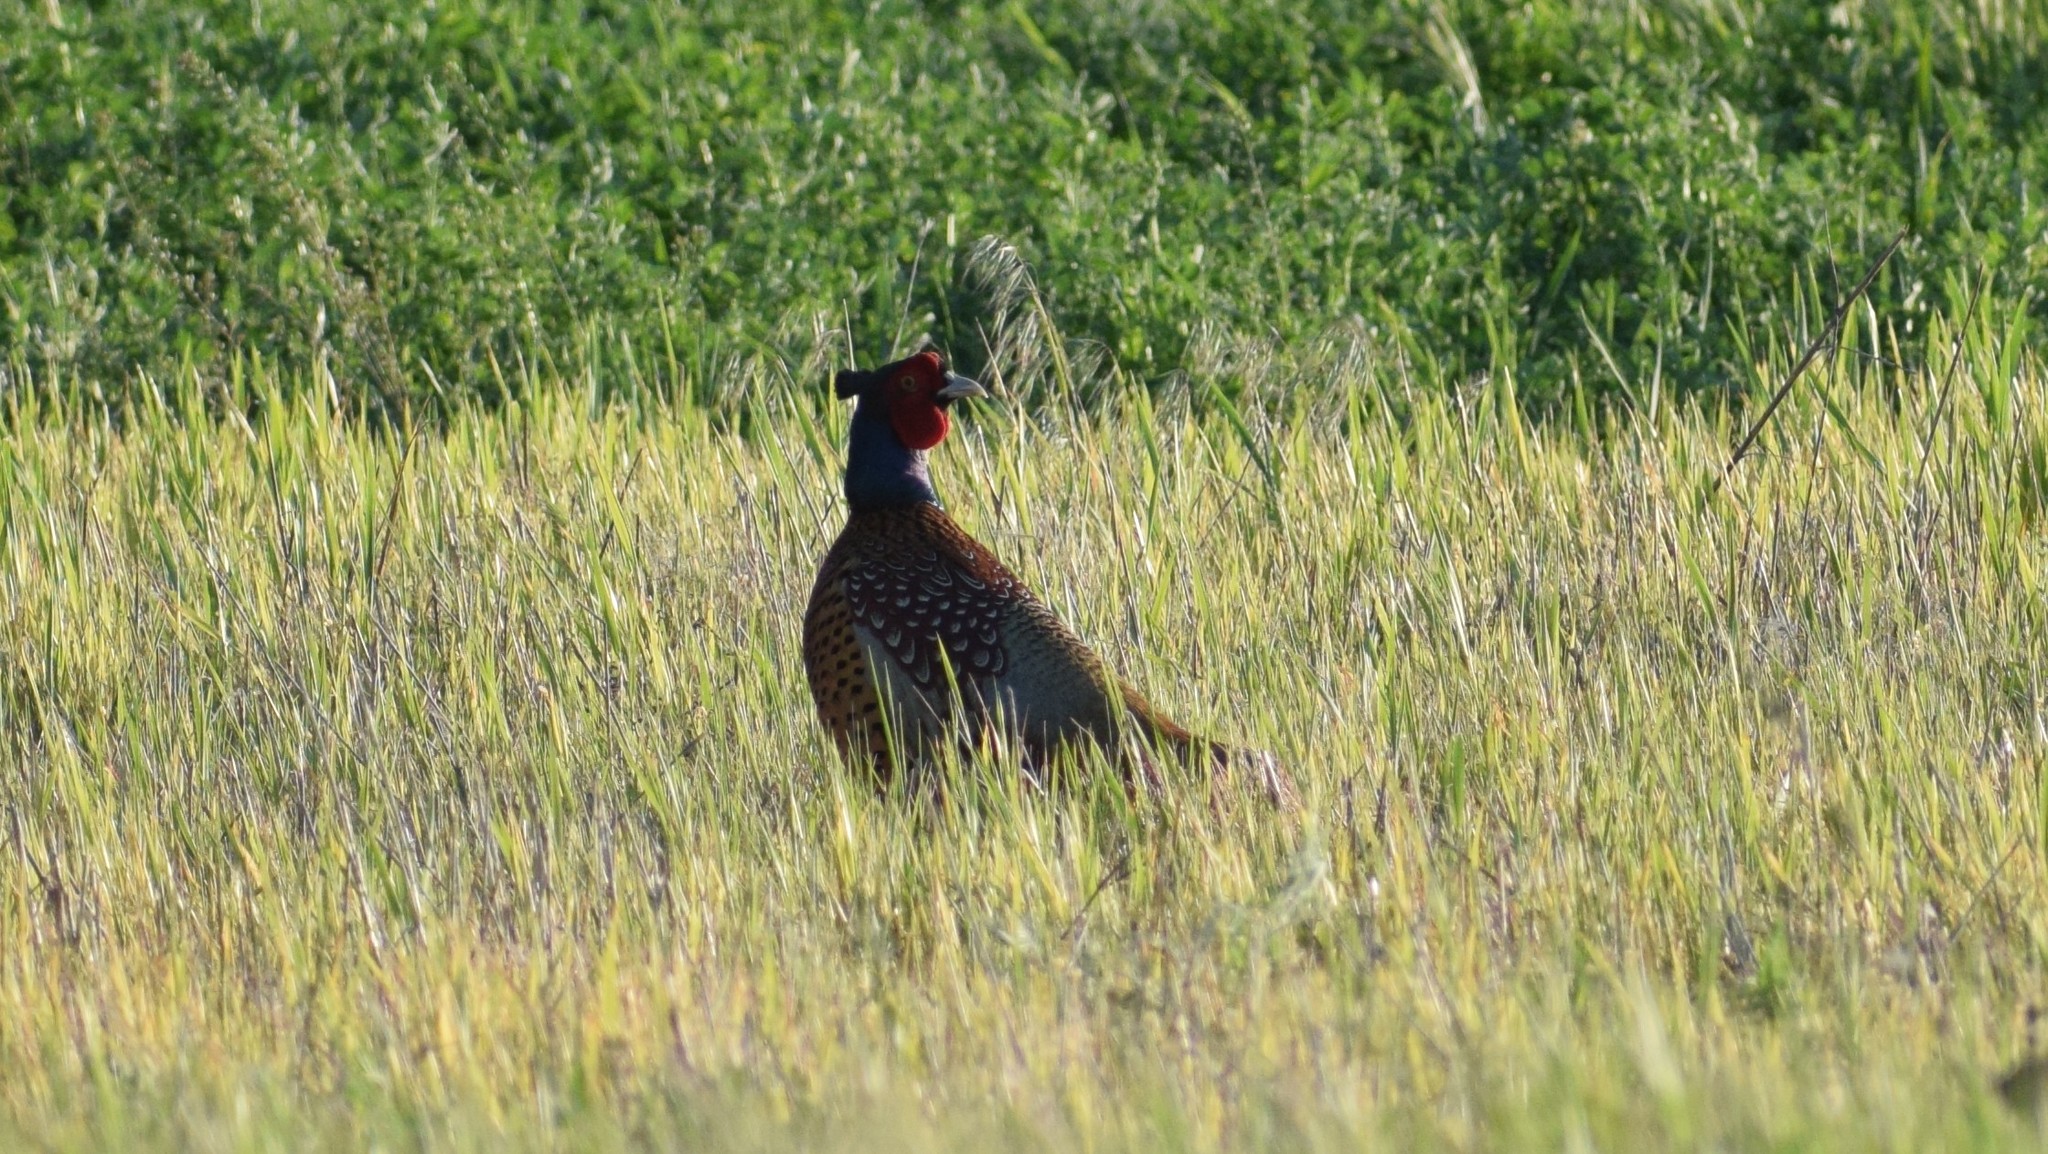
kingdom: Animalia
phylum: Chordata
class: Aves
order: Galliformes
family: Phasianidae
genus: Phasianus
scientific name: Phasianus colchicus
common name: Common pheasant
